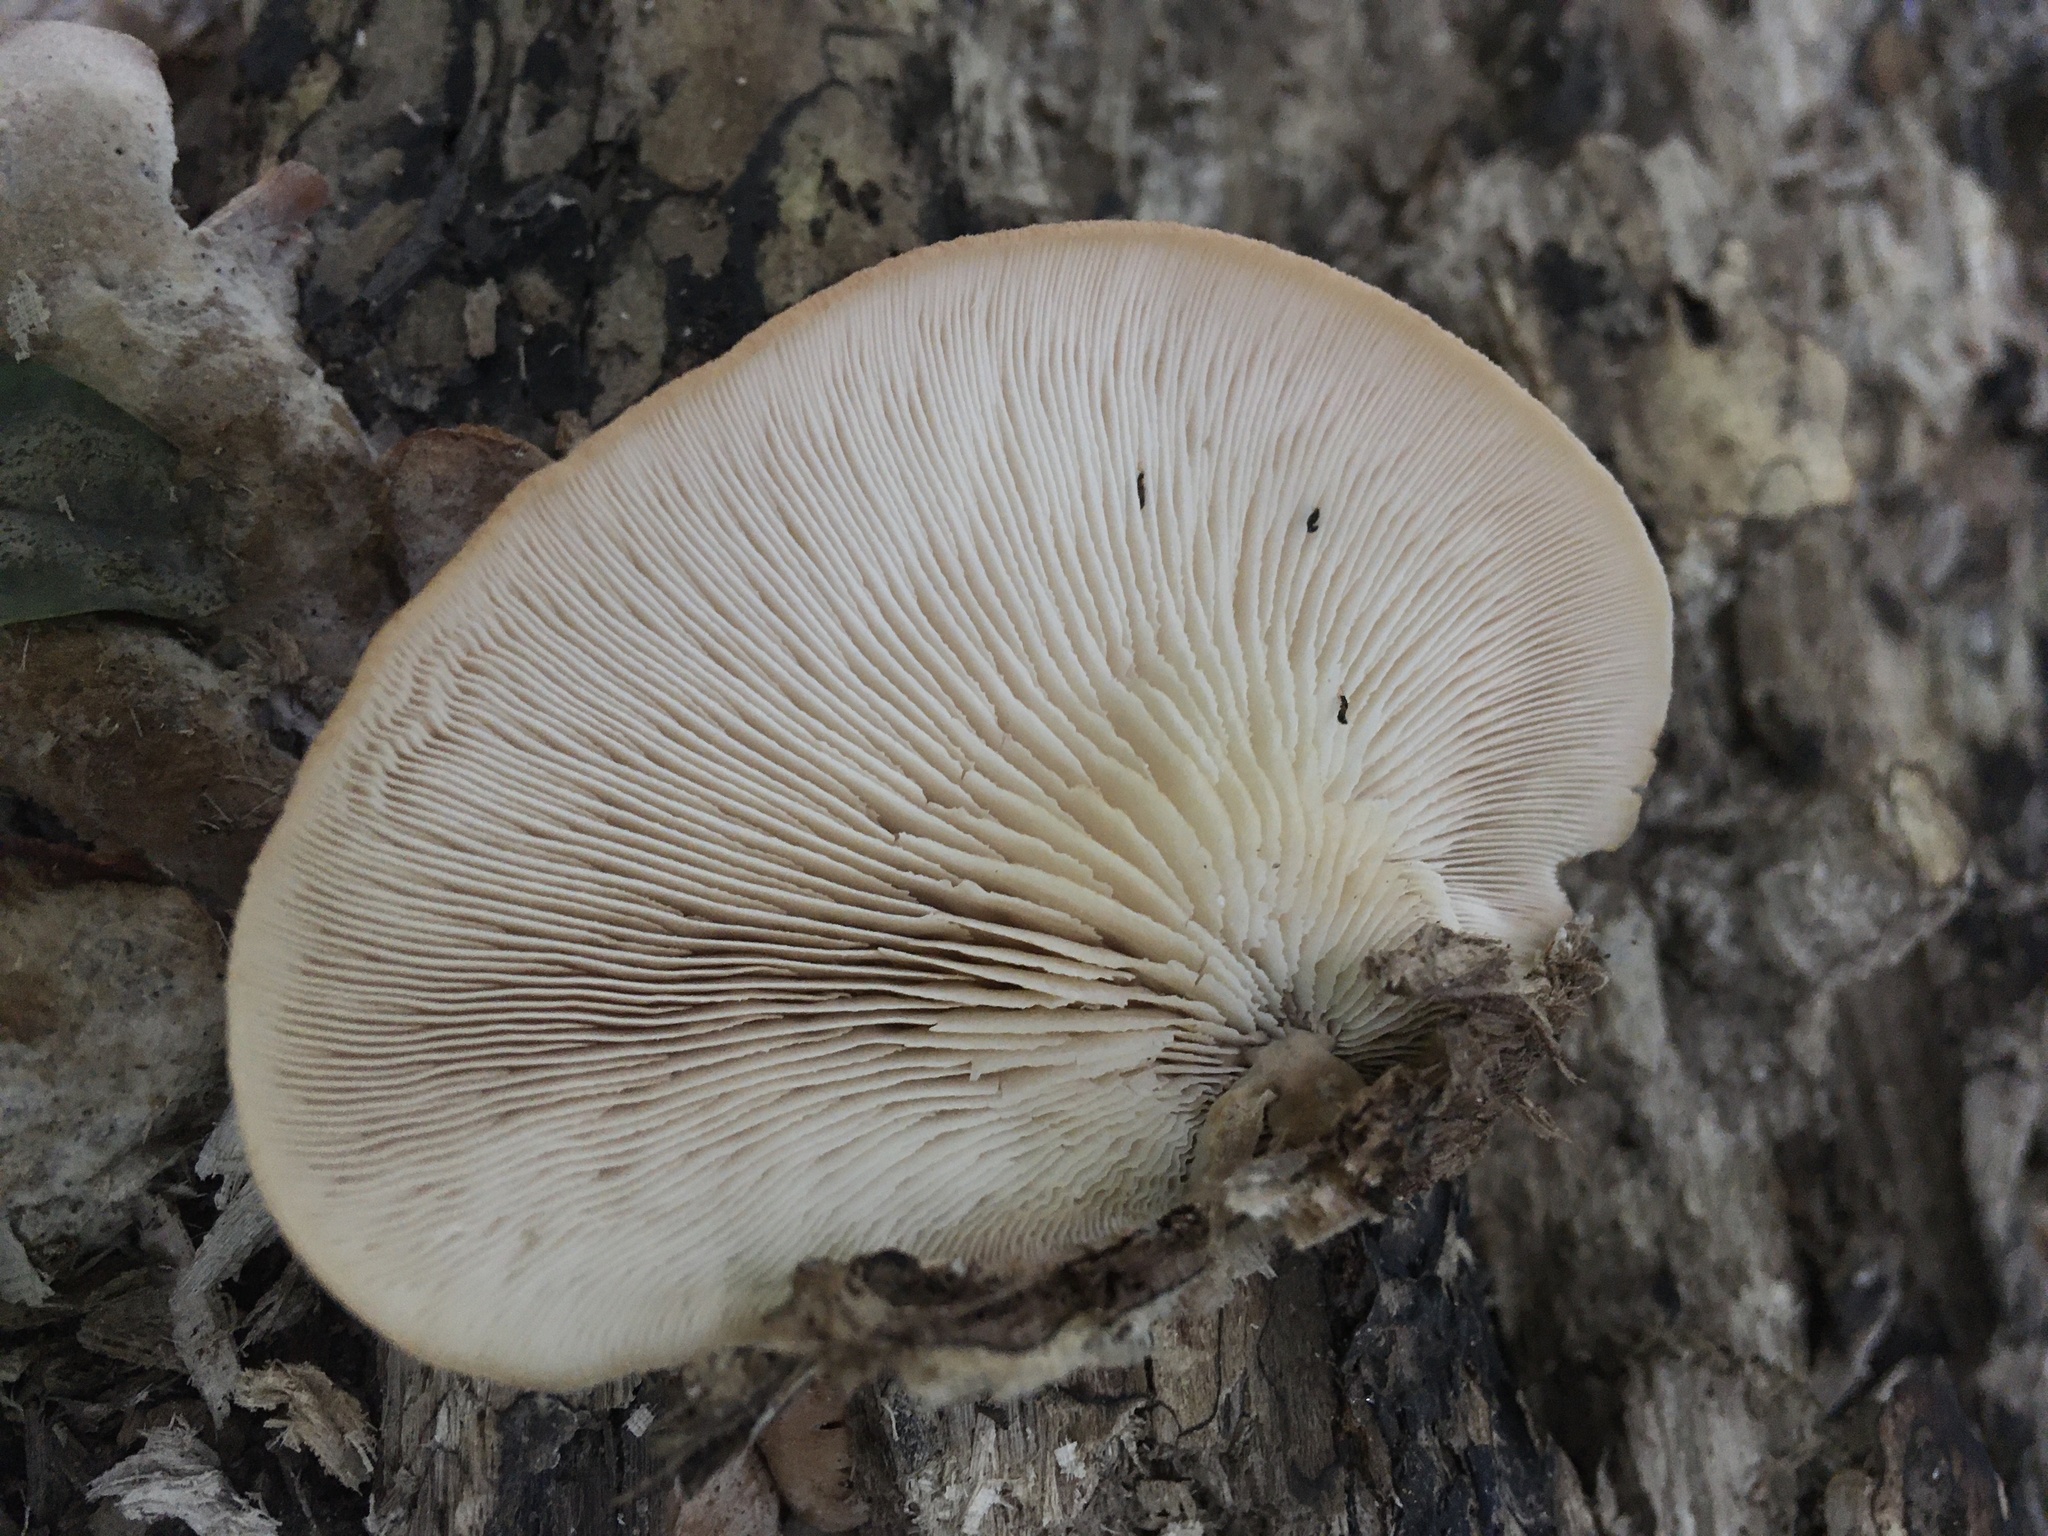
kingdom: Fungi
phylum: Basidiomycota
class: Agaricomycetes
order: Russulales
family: Auriscalpiaceae
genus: Lentinellus
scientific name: Lentinellus ursinus
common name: Bear lentinus
